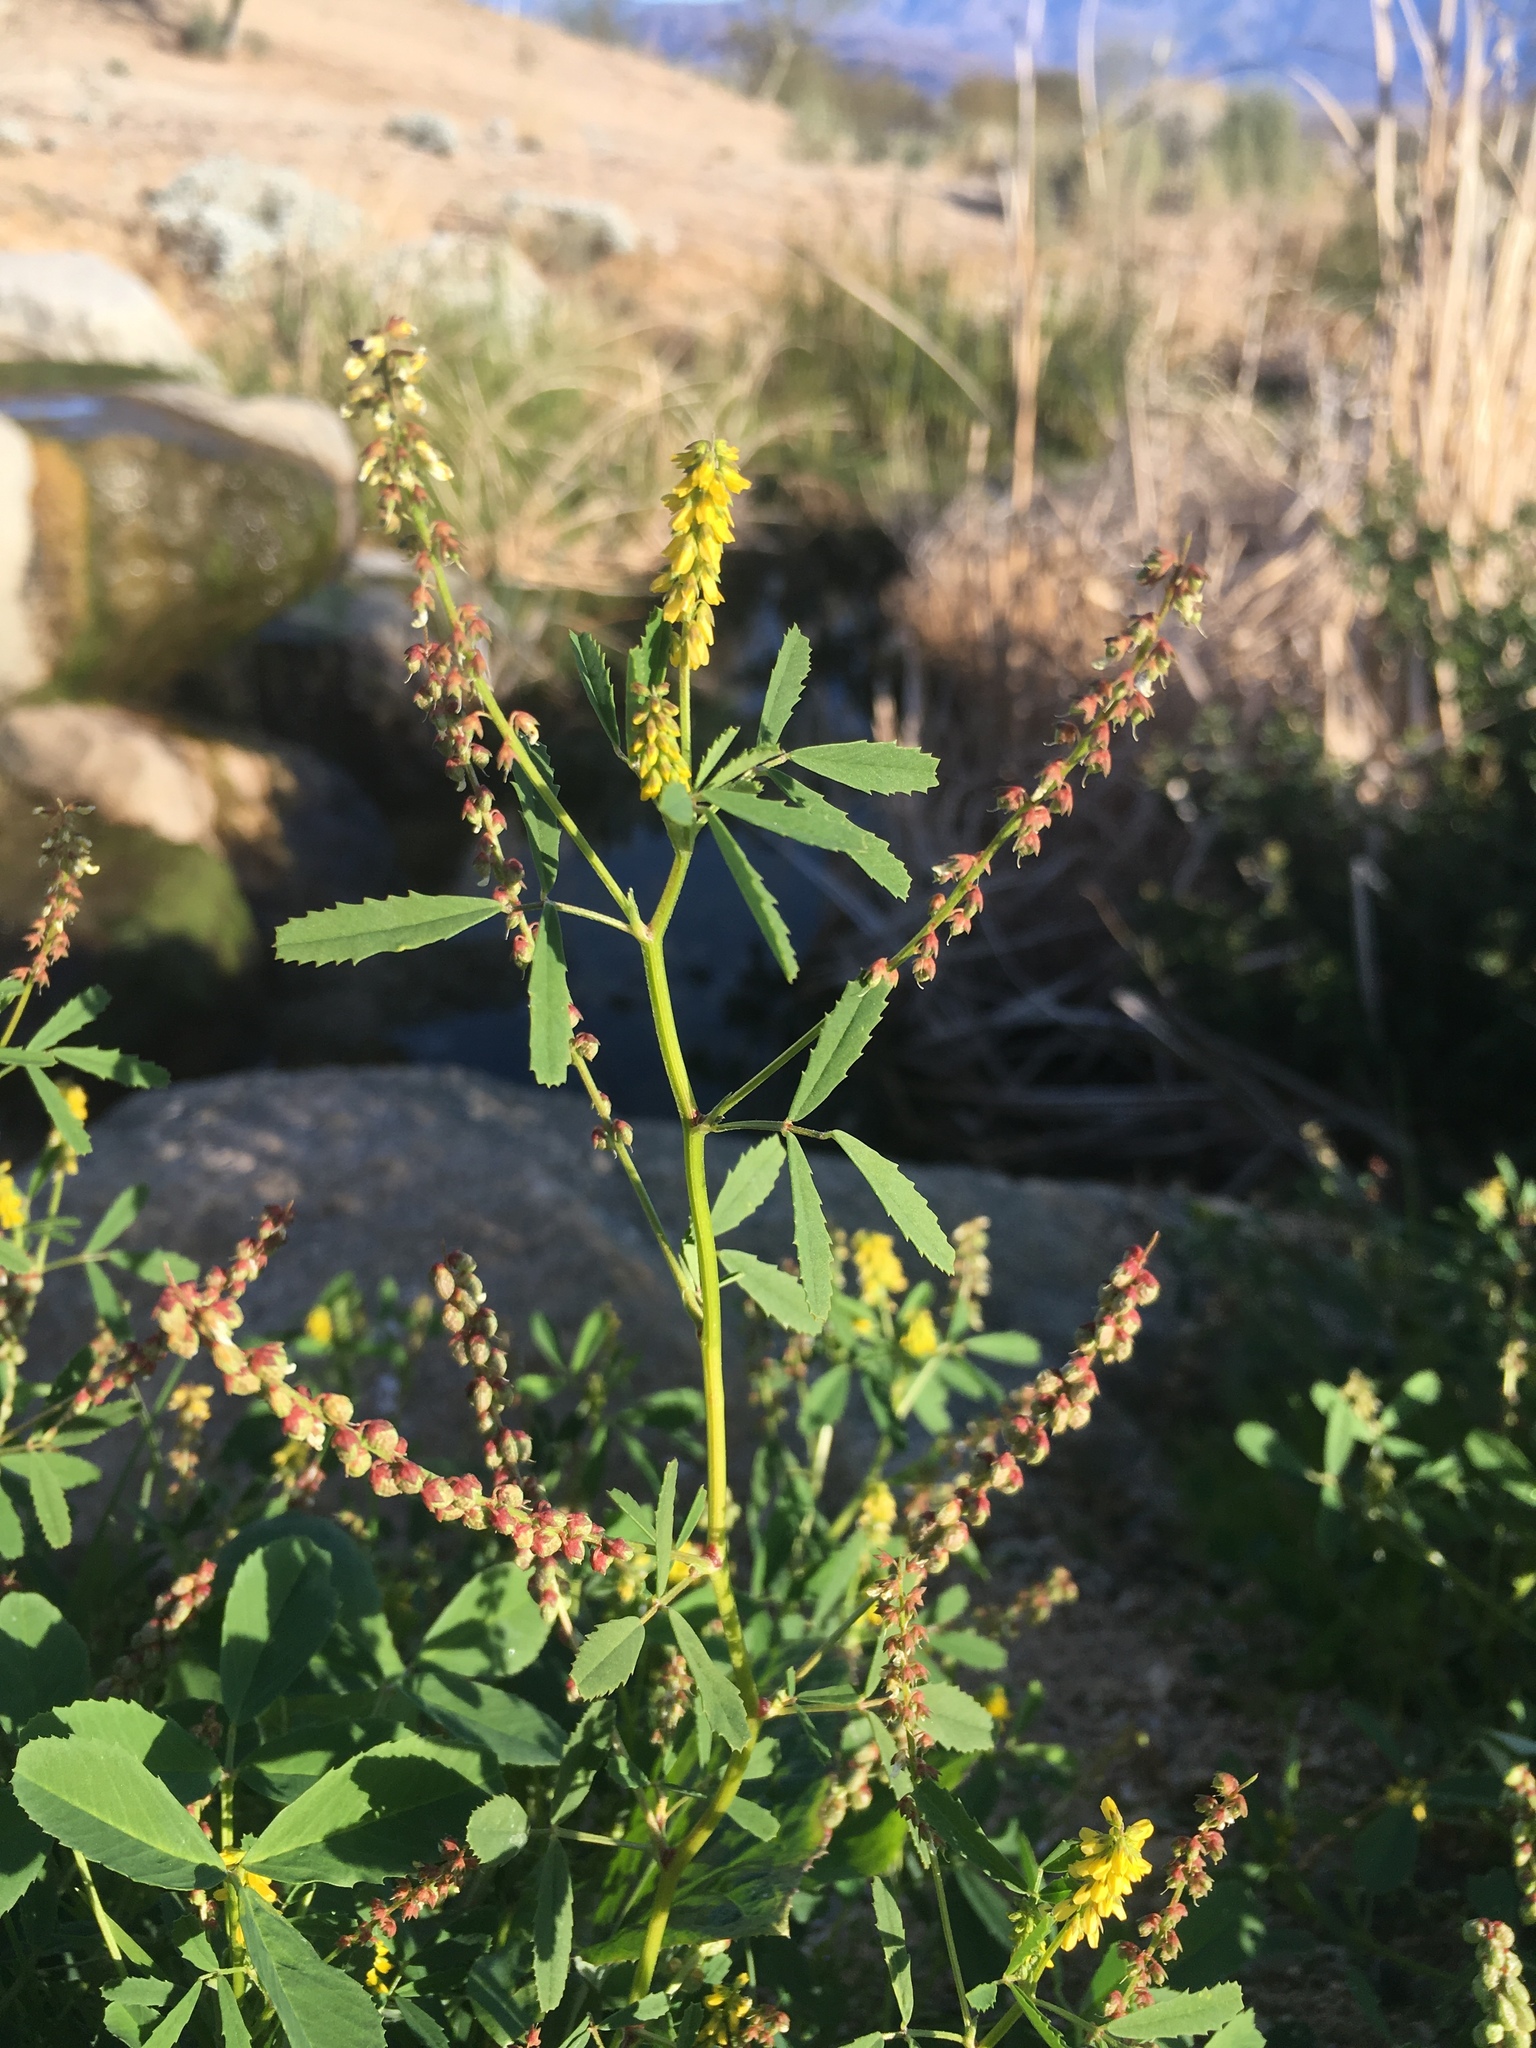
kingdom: Plantae
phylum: Tracheophyta
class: Magnoliopsida
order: Fabales
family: Fabaceae
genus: Melilotus
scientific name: Melilotus indicus
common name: Small melilot
